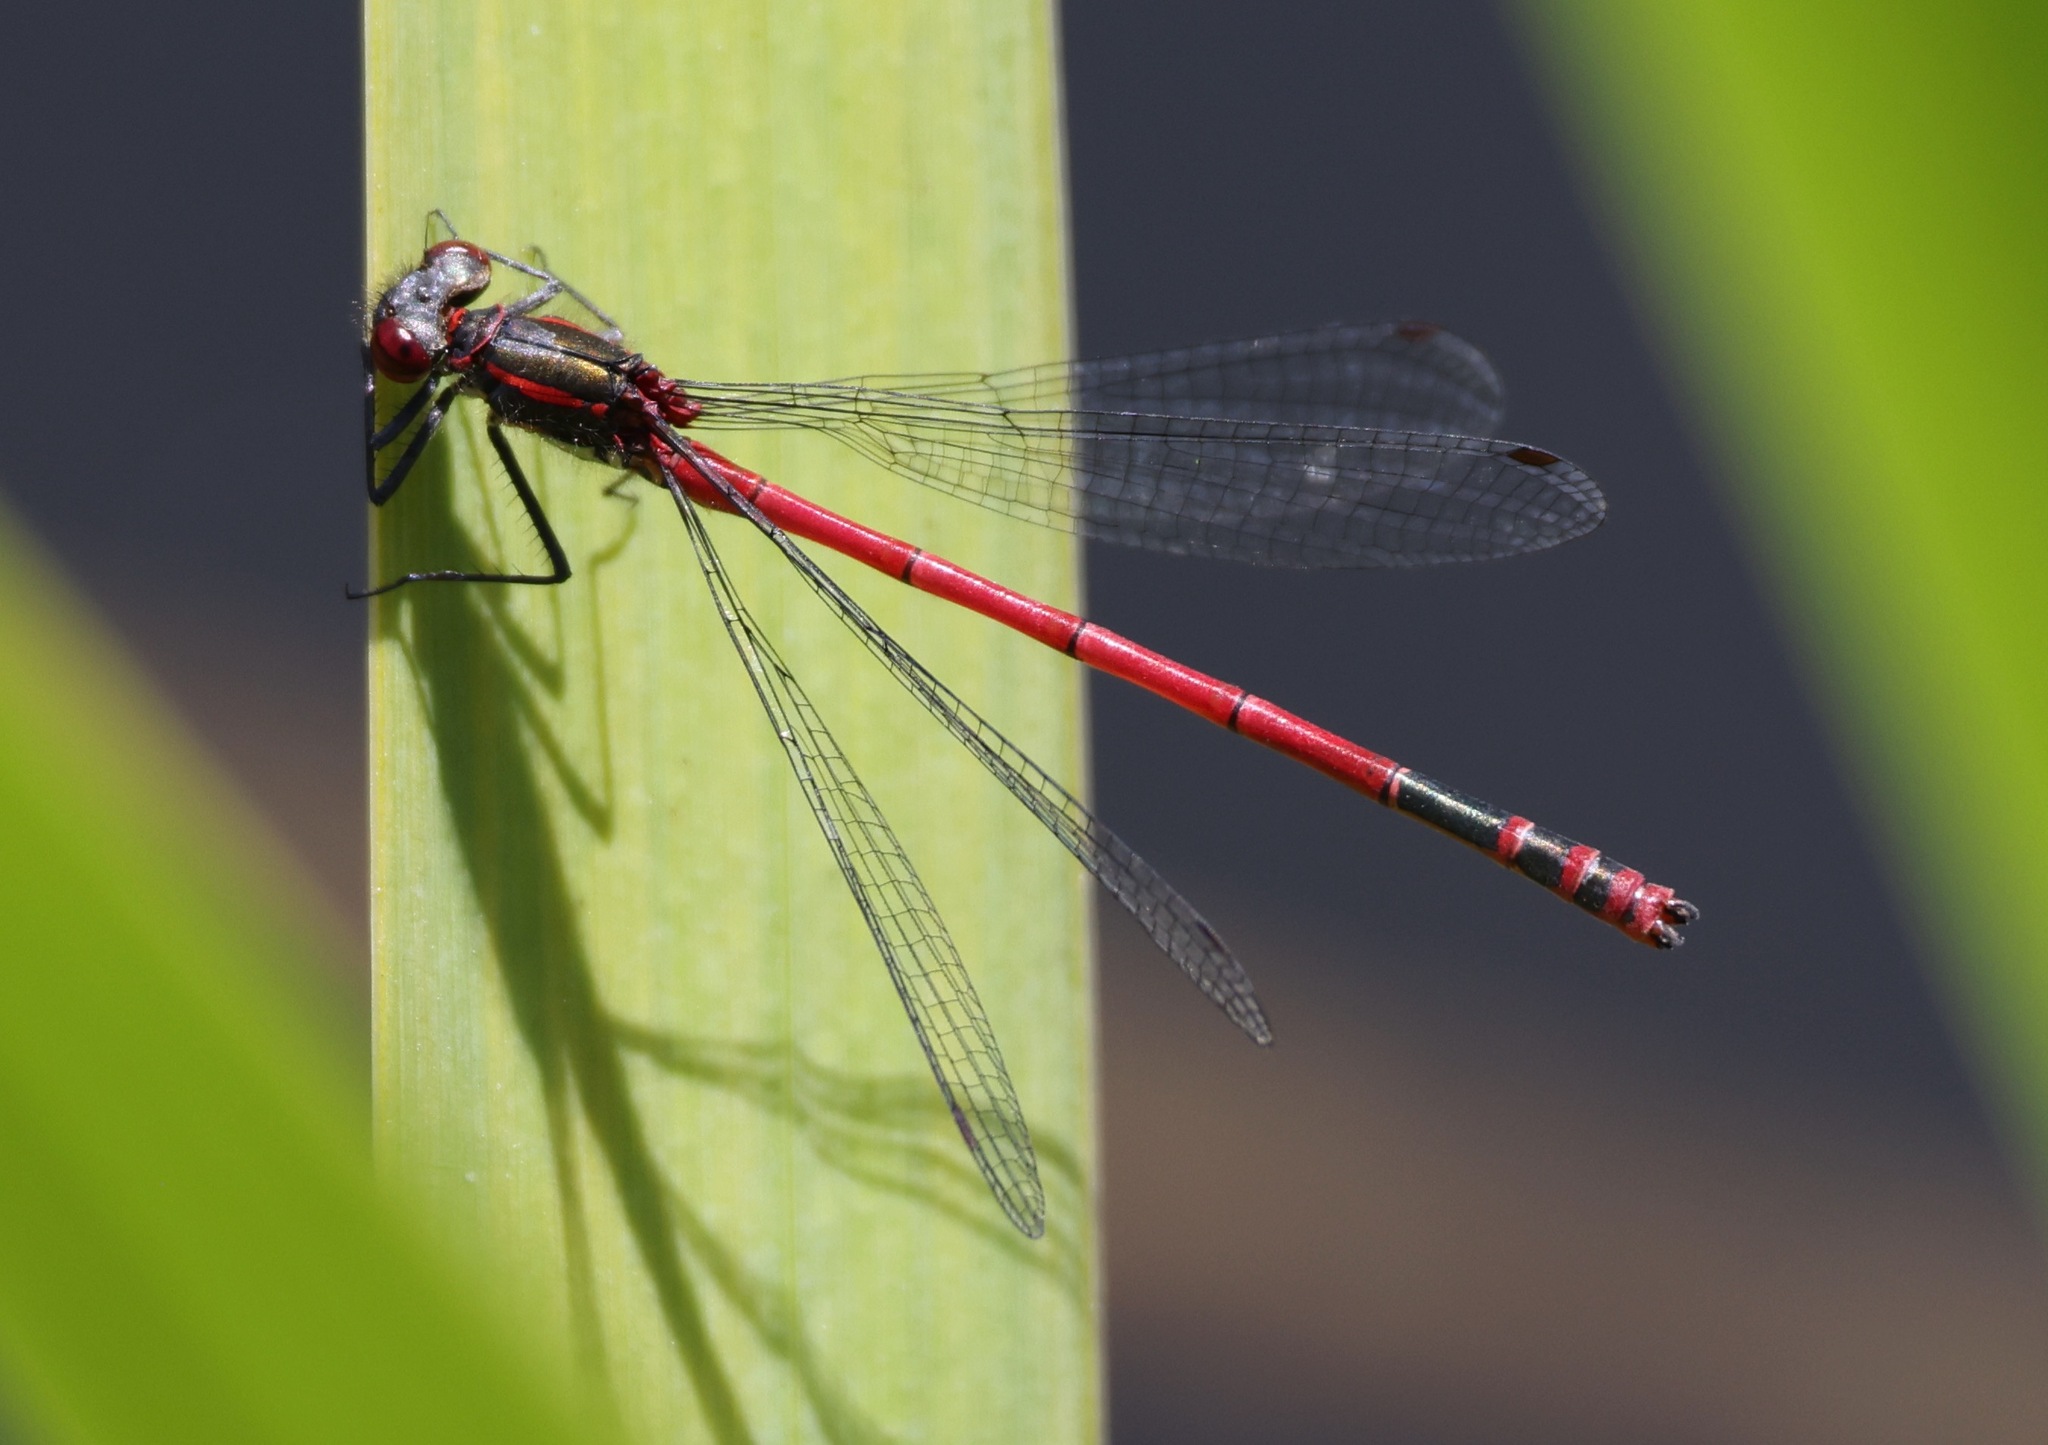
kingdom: Animalia
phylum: Arthropoda
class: Insecta
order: Odonata
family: Coenagrionidae
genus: Pyrrhosoma
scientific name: Pyrrhosoma nymphula
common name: Large red damsel
